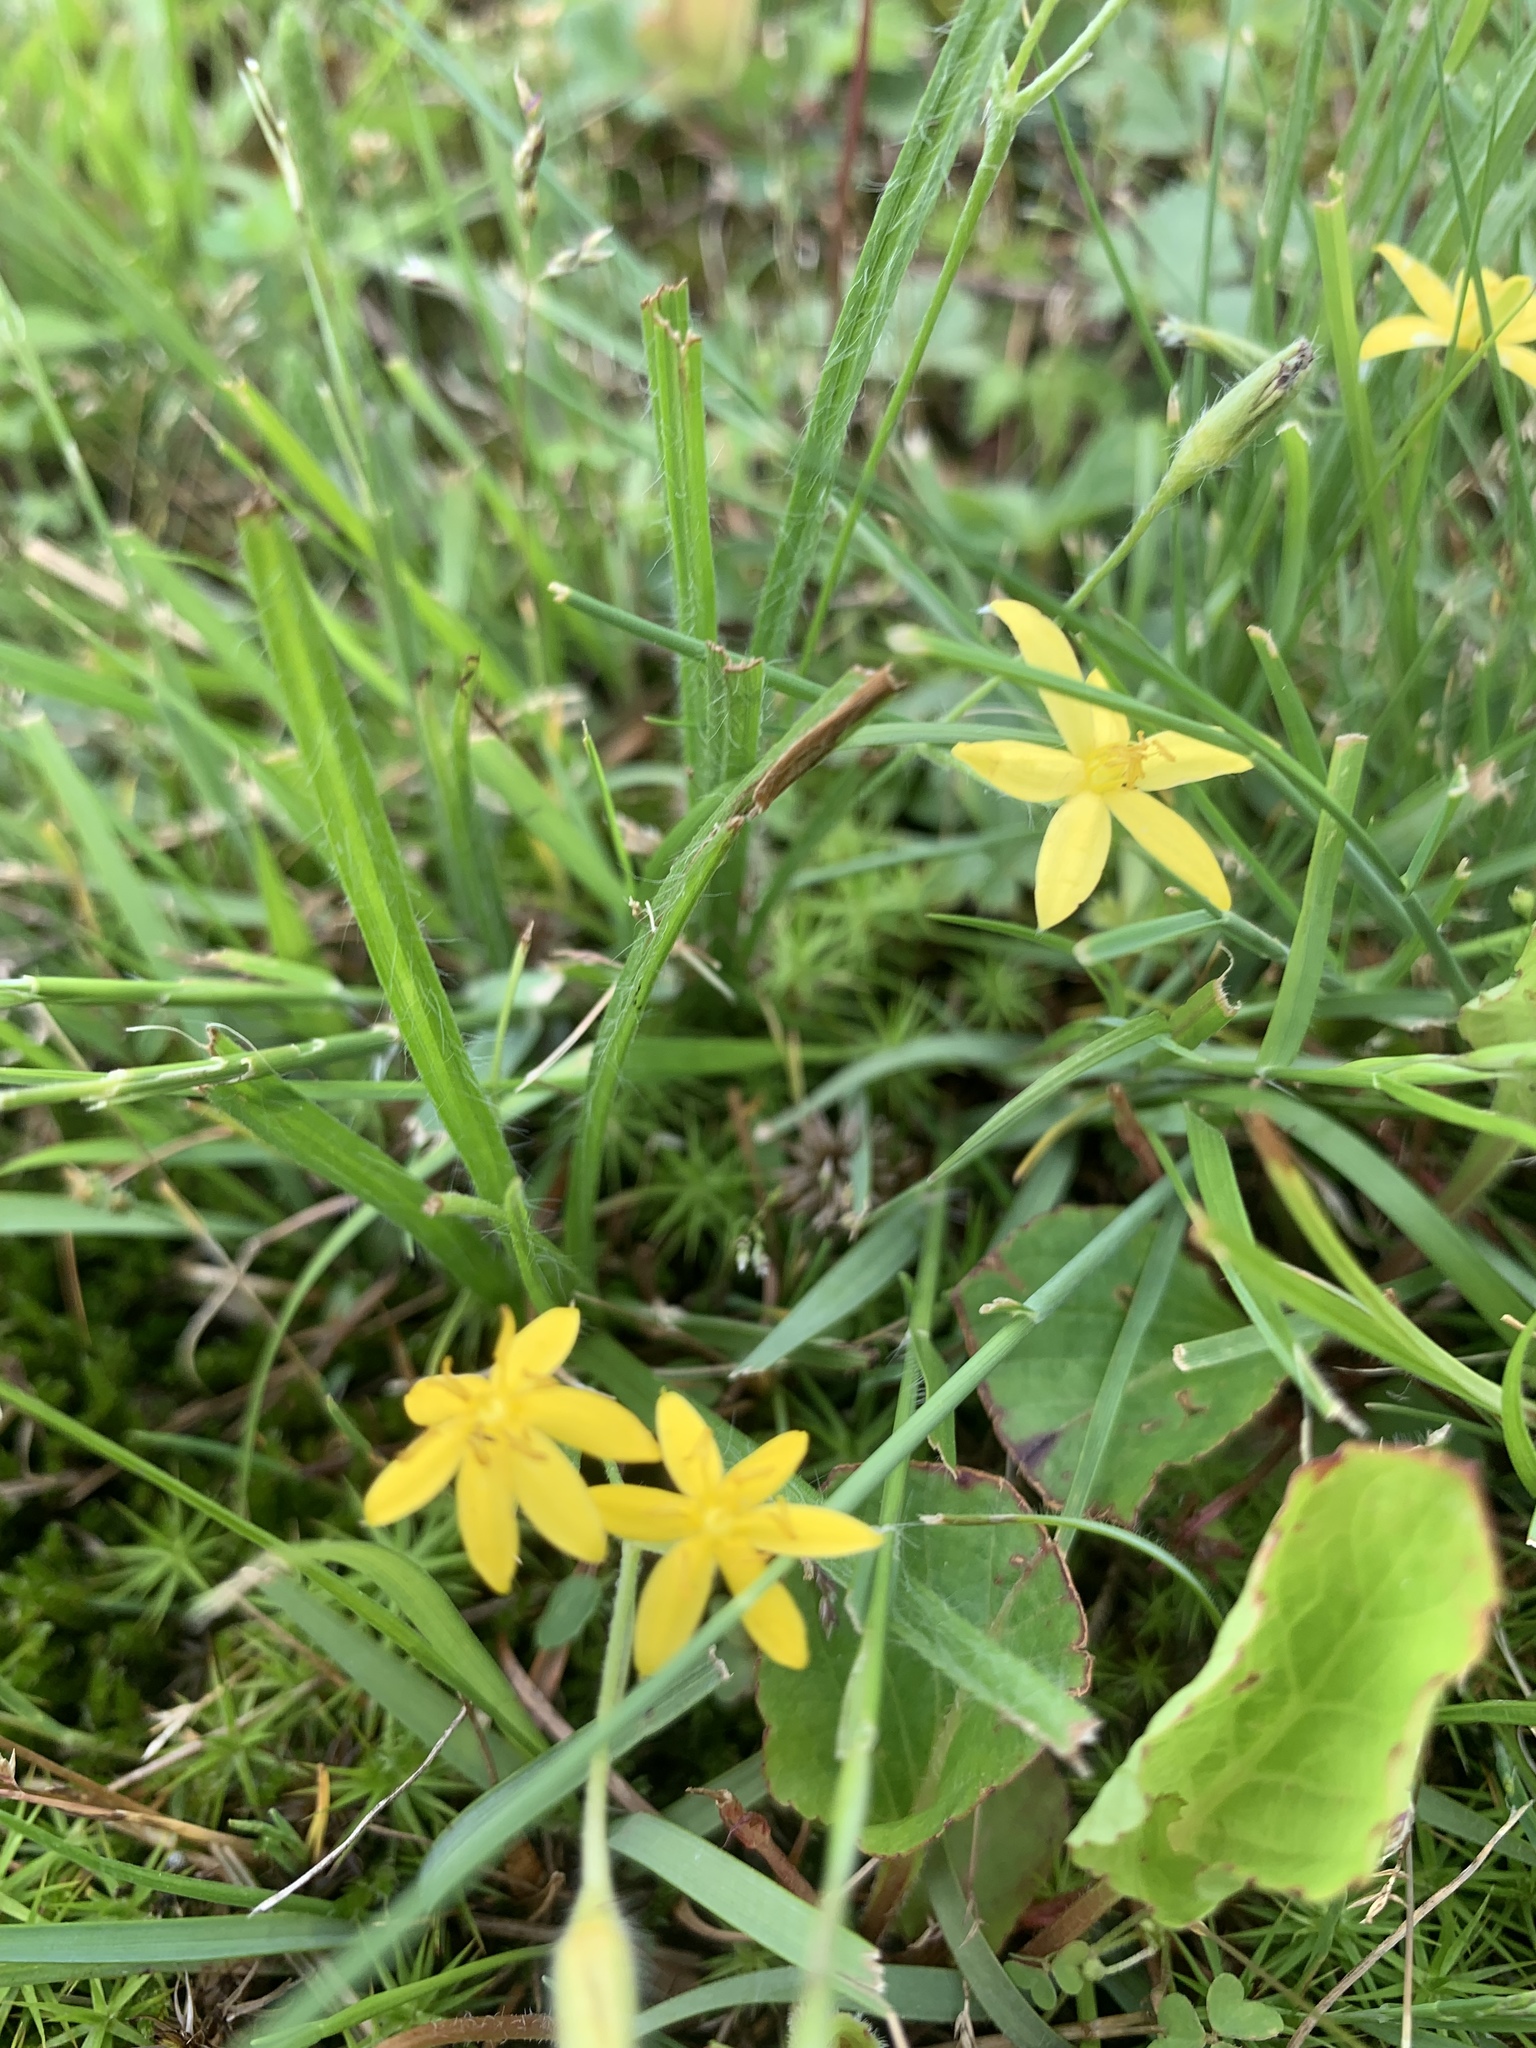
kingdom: Plantae
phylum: Tracheophyta
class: Liliopsida
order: Asparagales
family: Hypoxidaceae
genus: Hypoxis
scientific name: Hypoxis hirsuta
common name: Common goldstar
